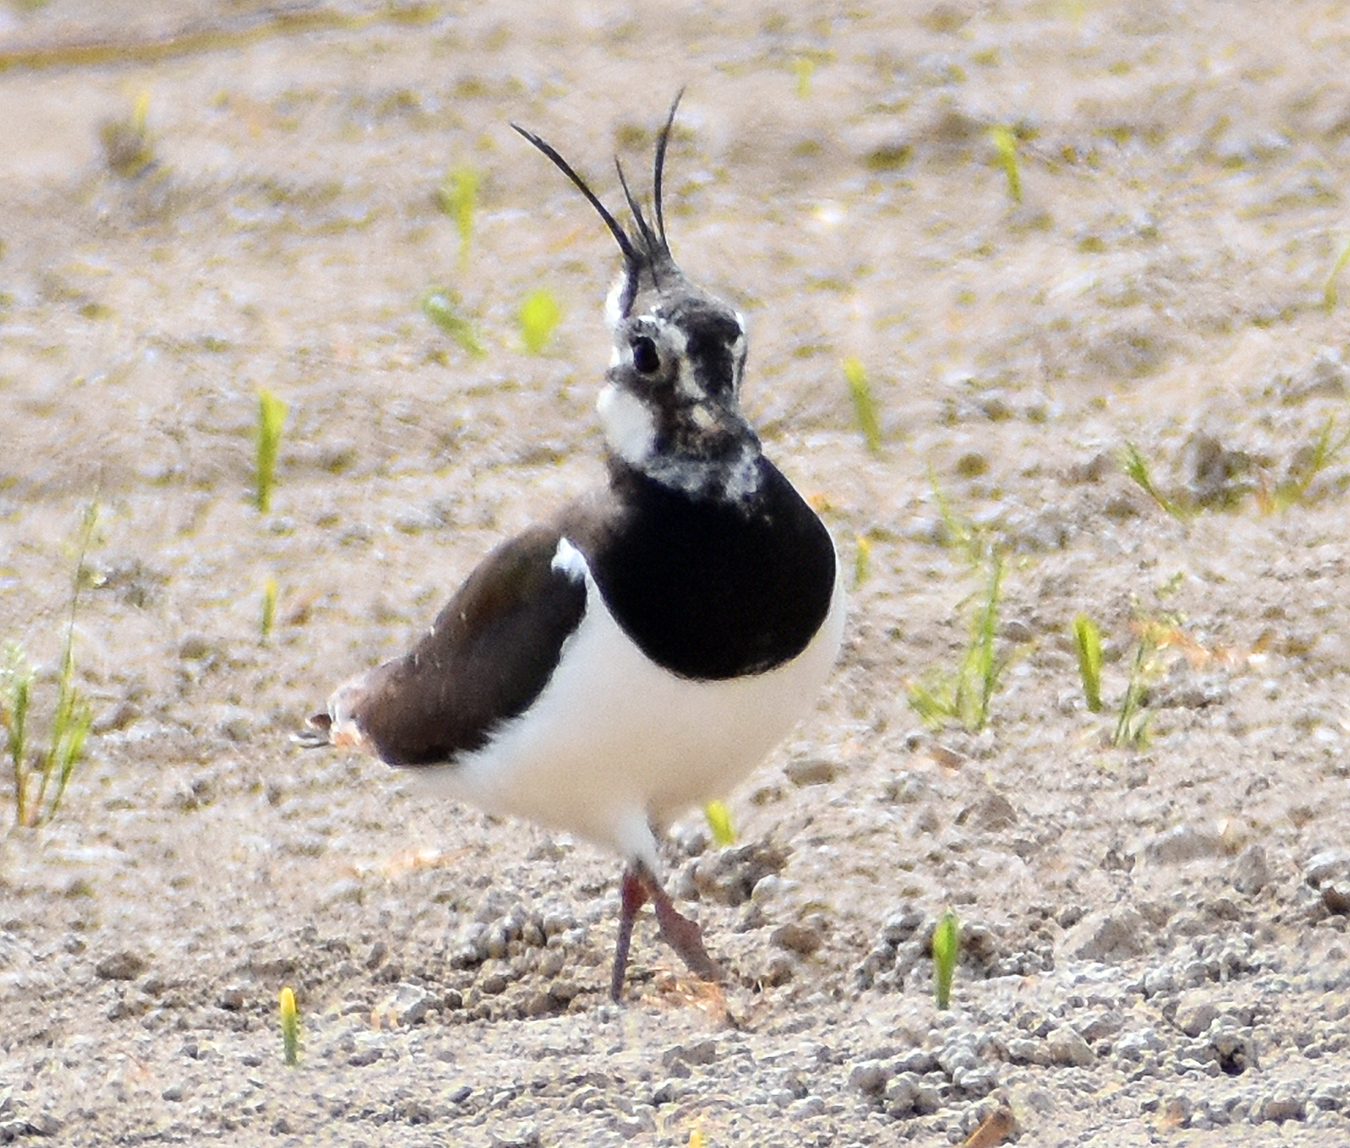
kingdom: Animalia
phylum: Chordata
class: Aves
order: Charadriiformes
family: Charadriidae
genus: Vanellus
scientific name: Vanellus vanellus
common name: Northern lapwing
